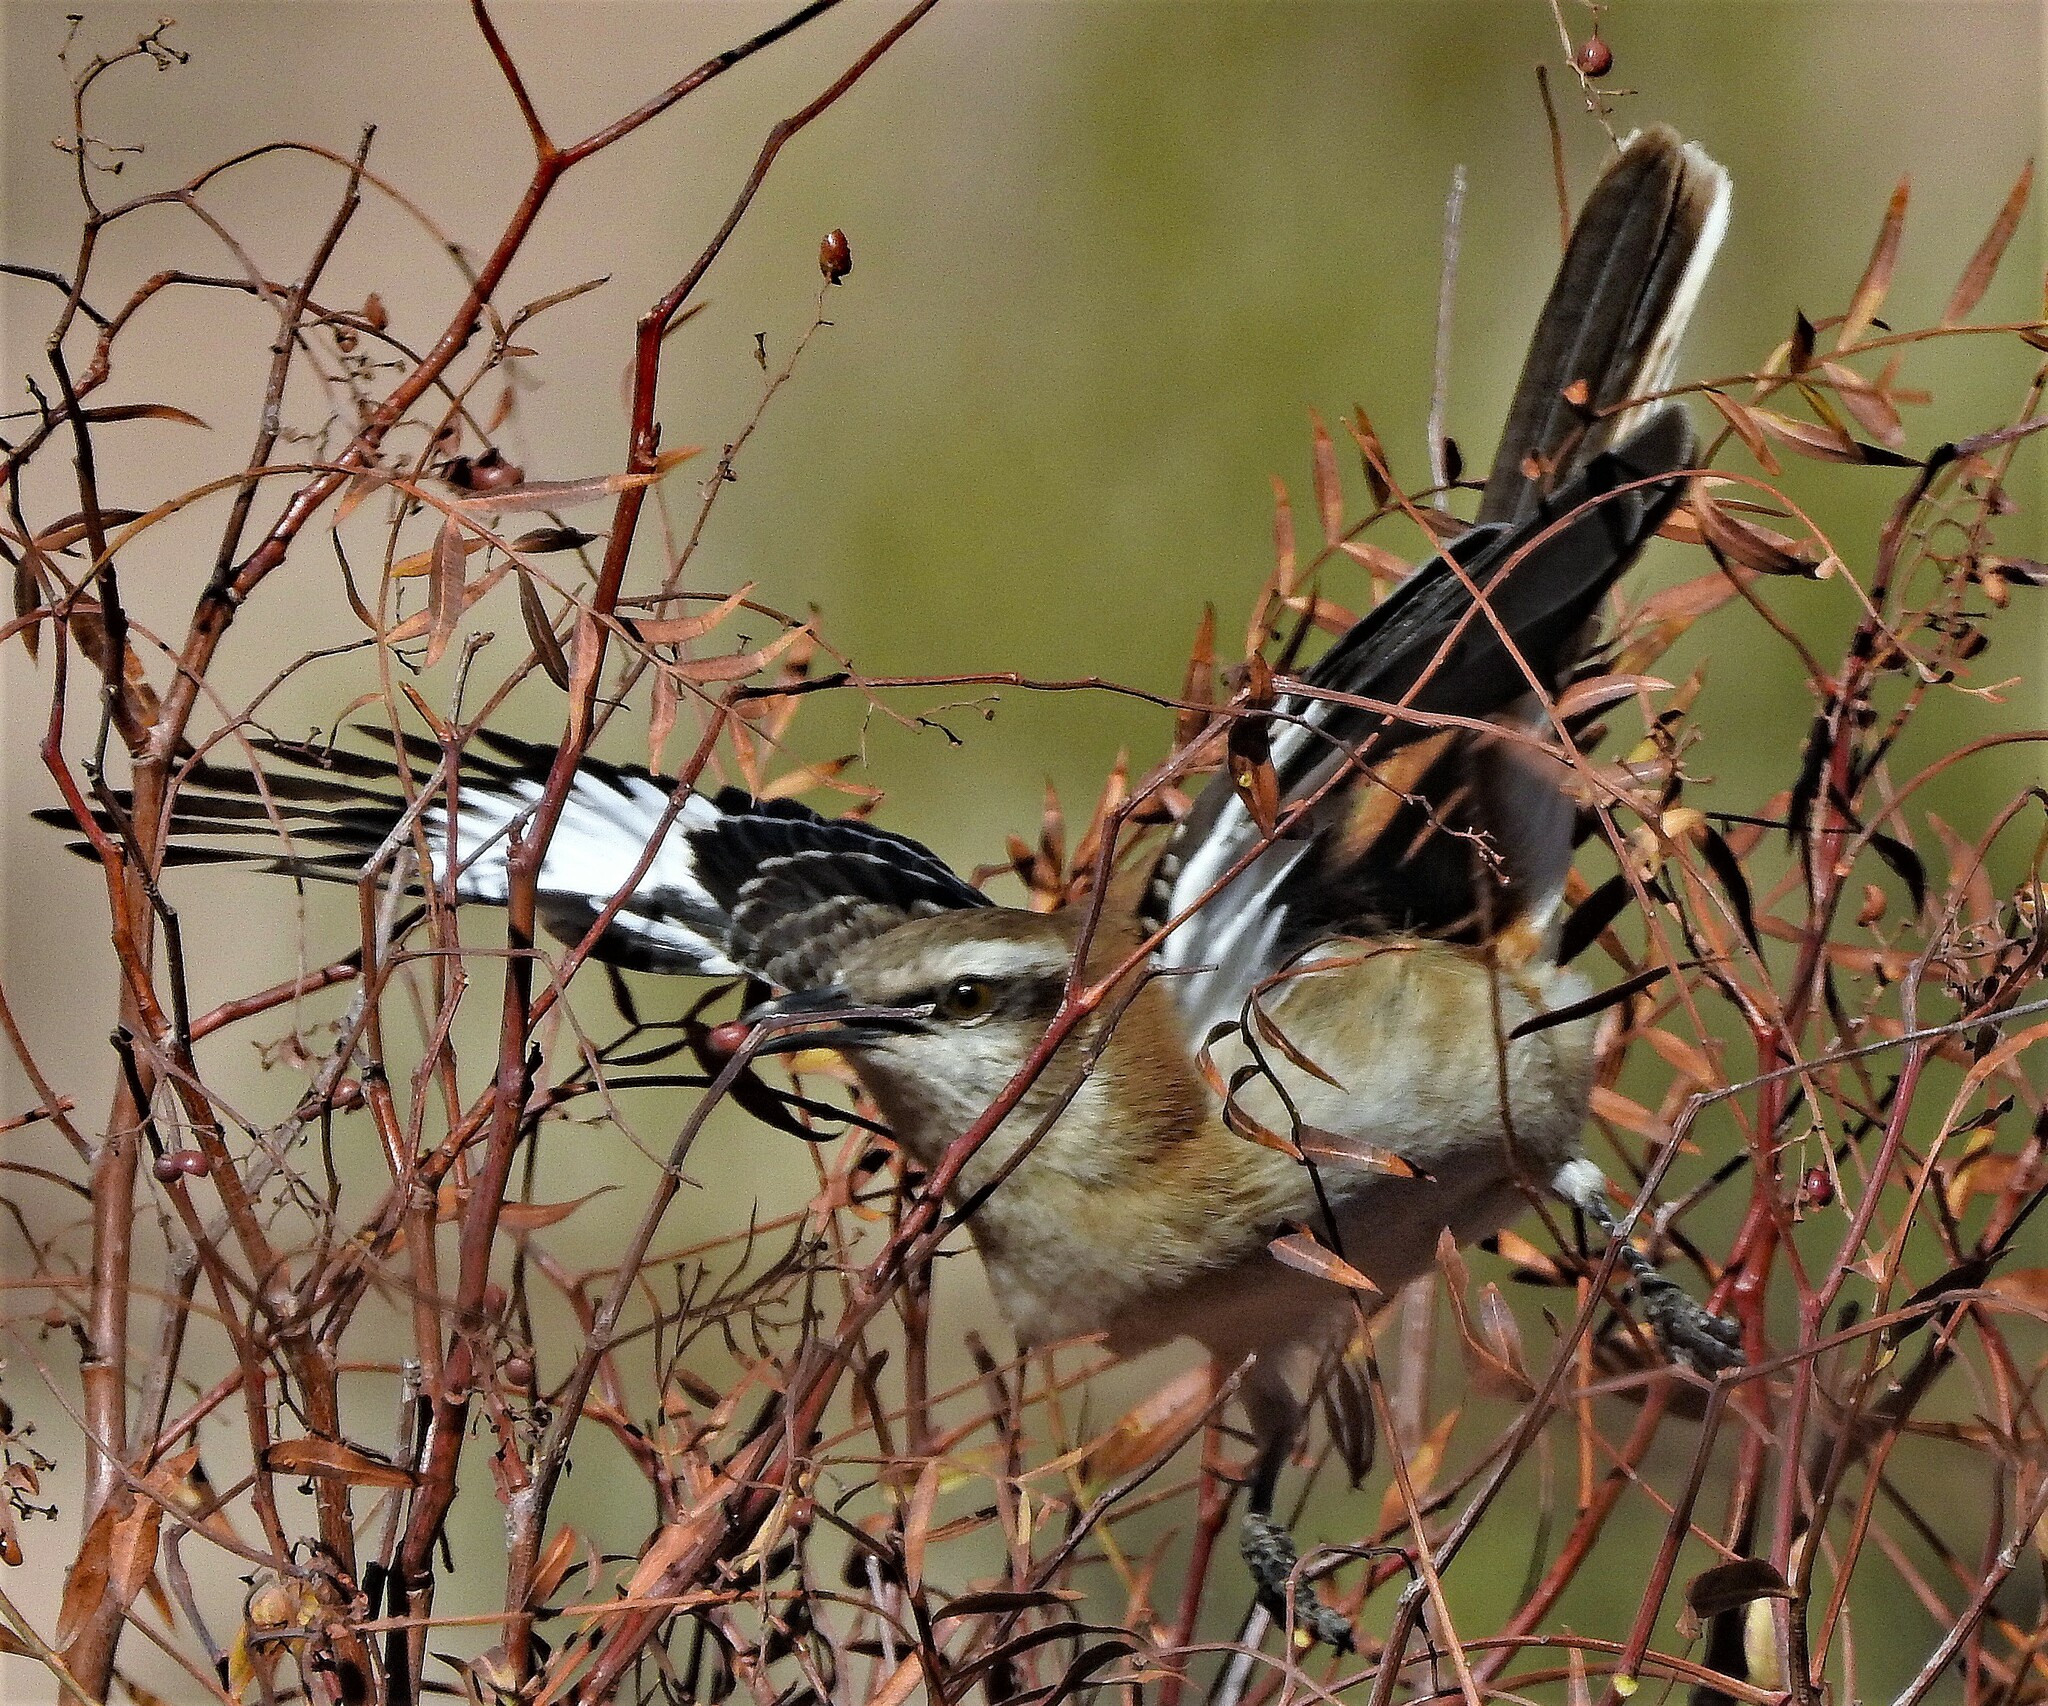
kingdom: Animalia
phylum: Chordata
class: Aves
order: Passeriformes
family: Mimidae
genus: Mimus
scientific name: Mimus dorsalis
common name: Brown-backed mockingbird
